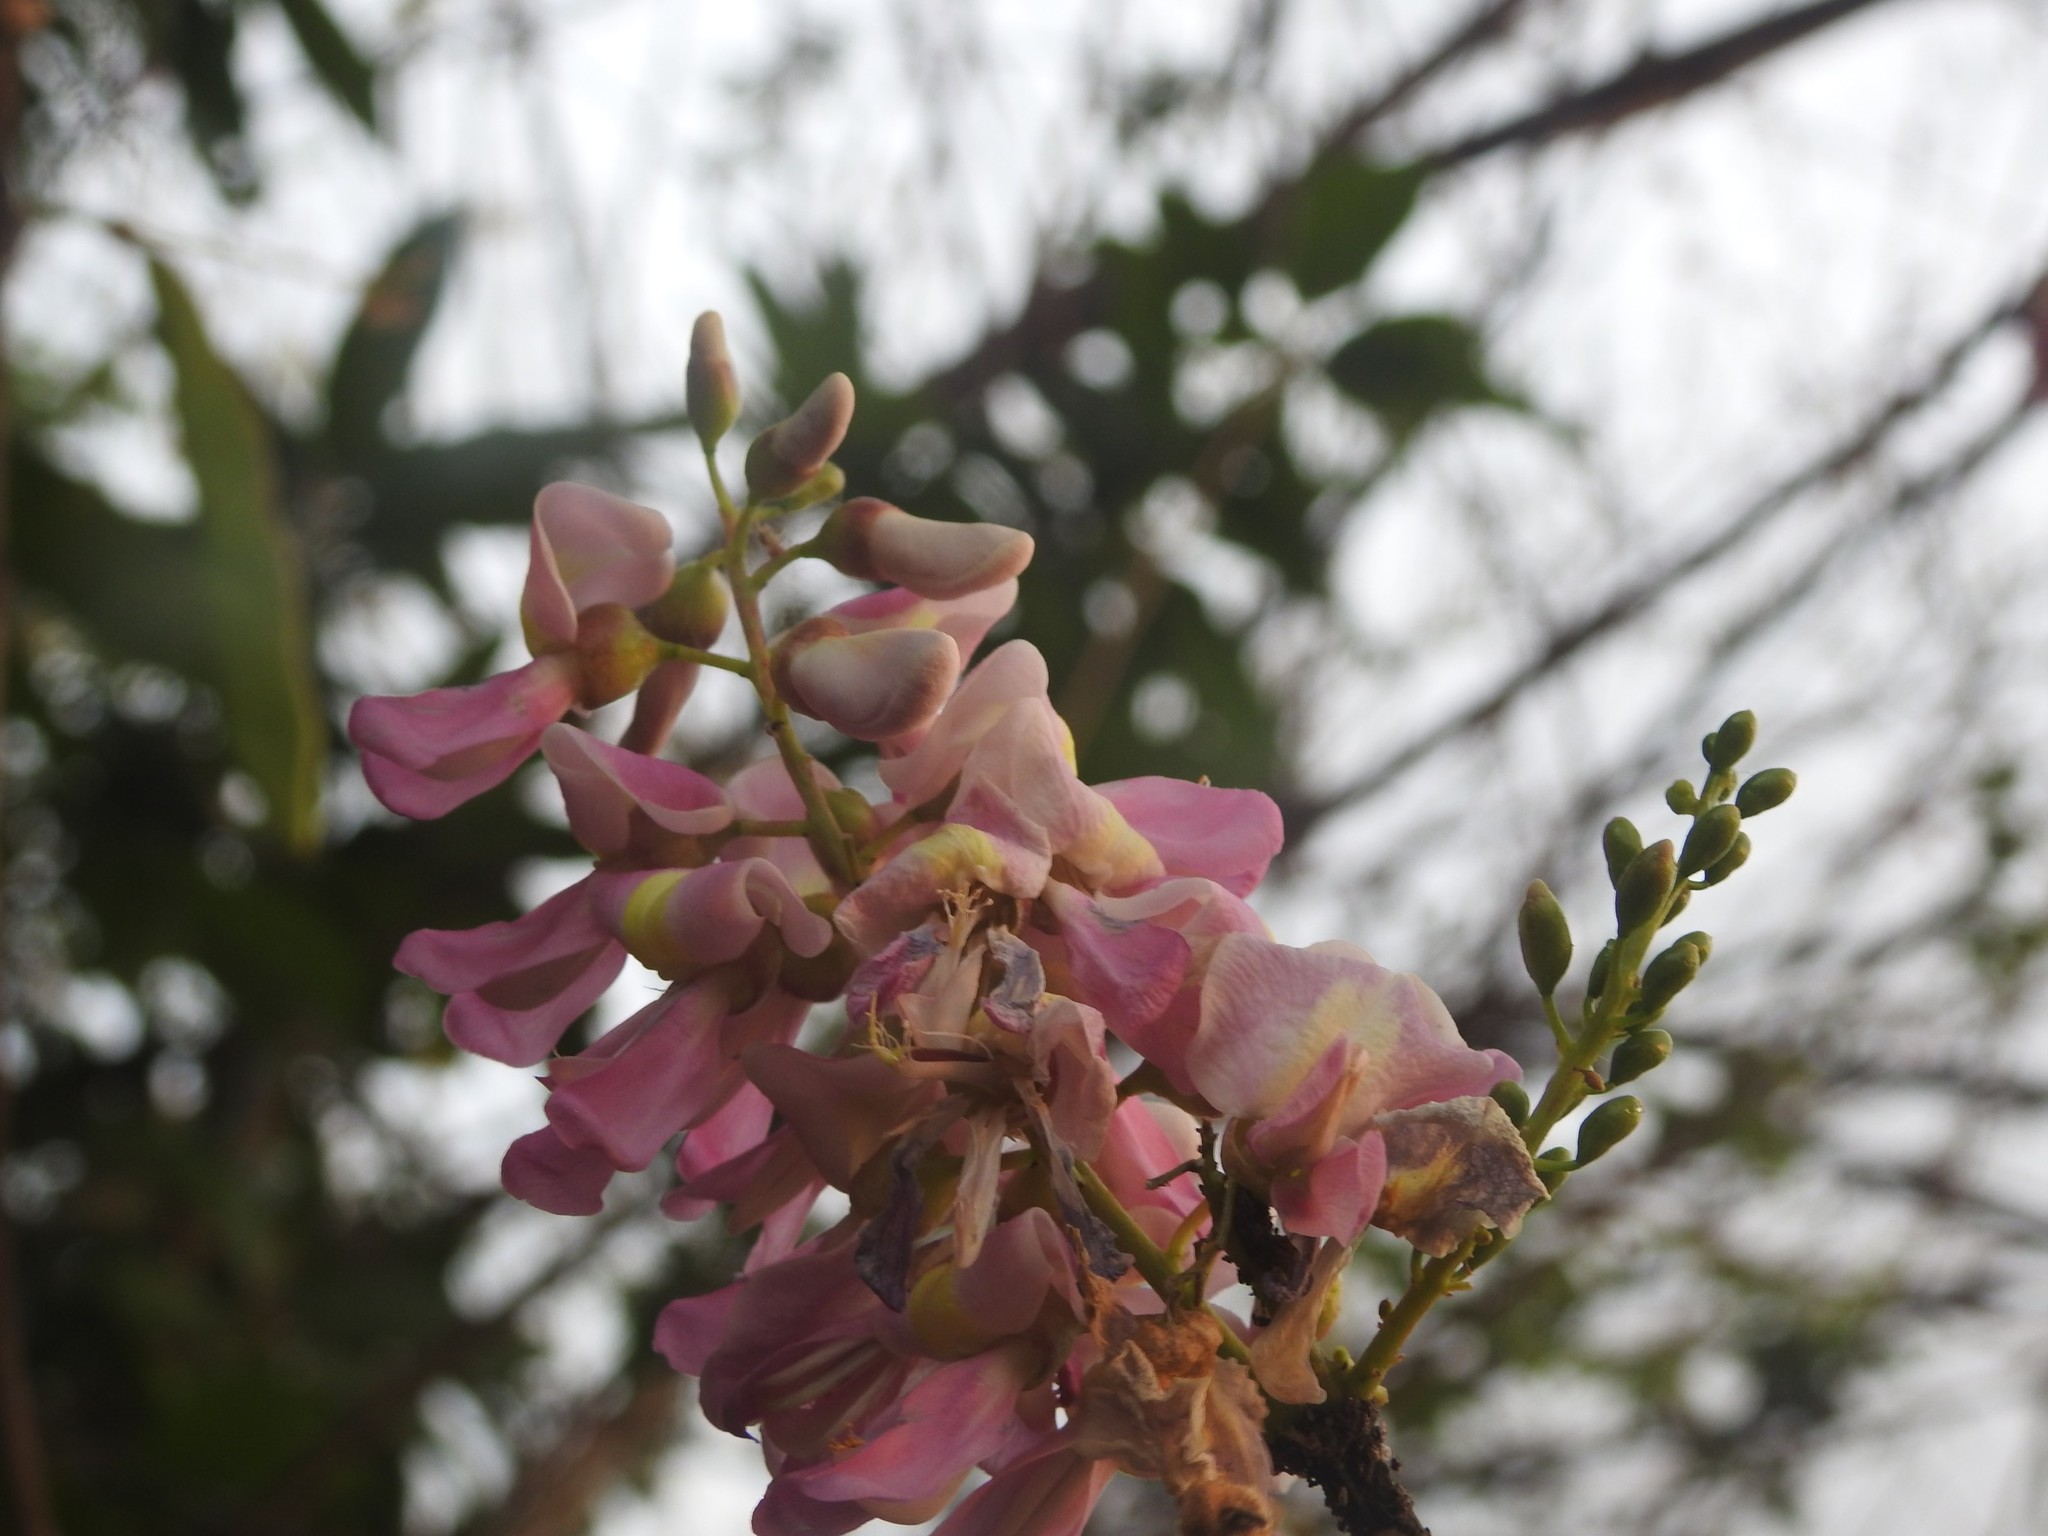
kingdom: Plantae
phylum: Tracheophyta
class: Magnoliopsida
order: Fabales
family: Fabaceae
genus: Gliricidia
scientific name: Gliricidia sepium
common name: Quickstick
